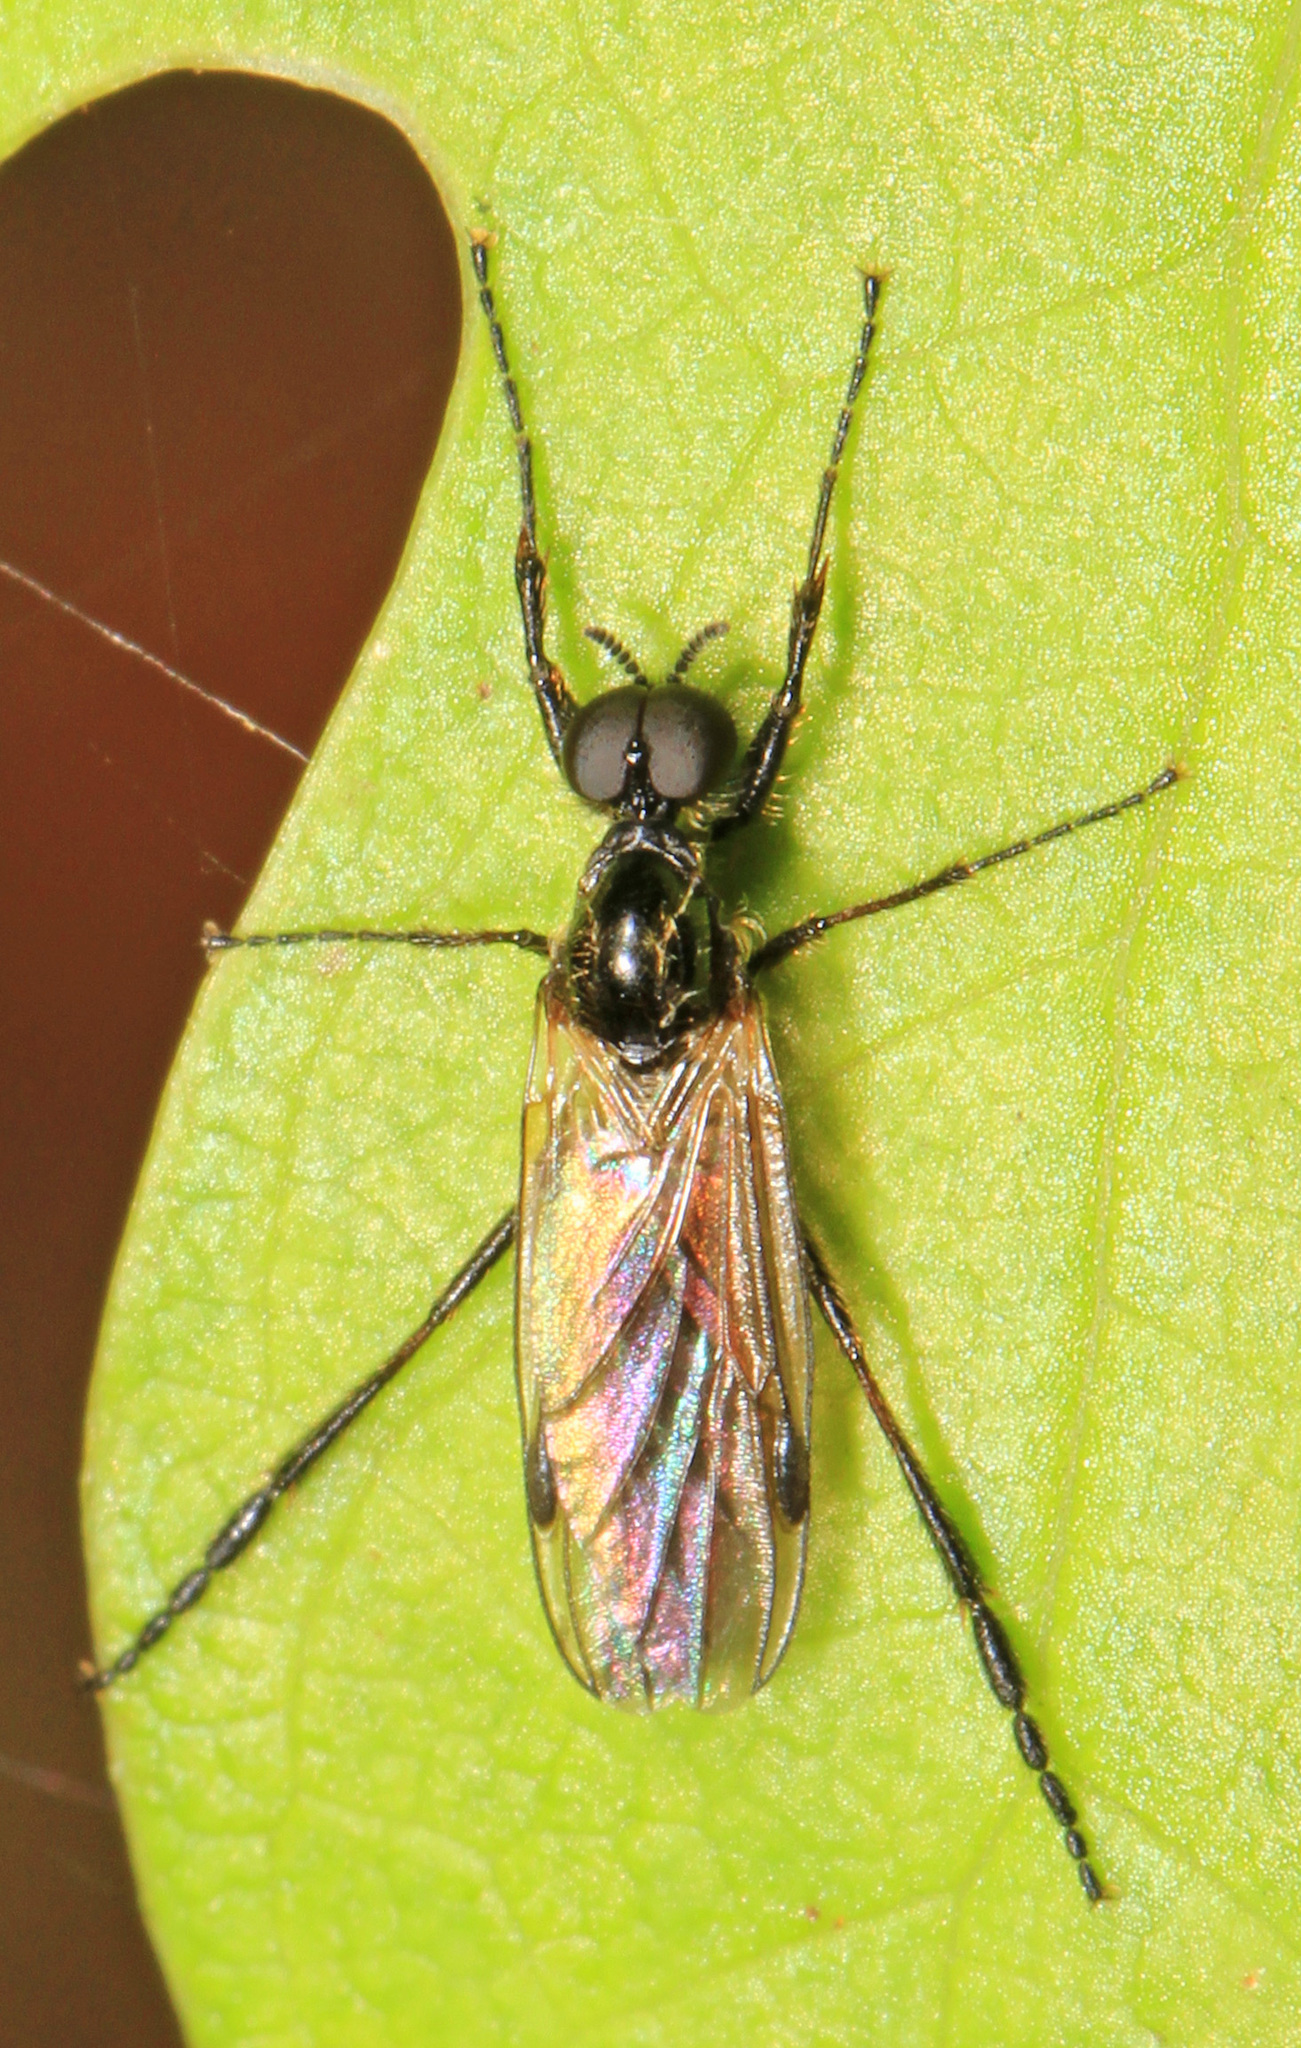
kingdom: Animalia
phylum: Arthropoda
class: Insecta
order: Diptera
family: Bibionidae
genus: Bibio
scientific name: Bibio longipes
